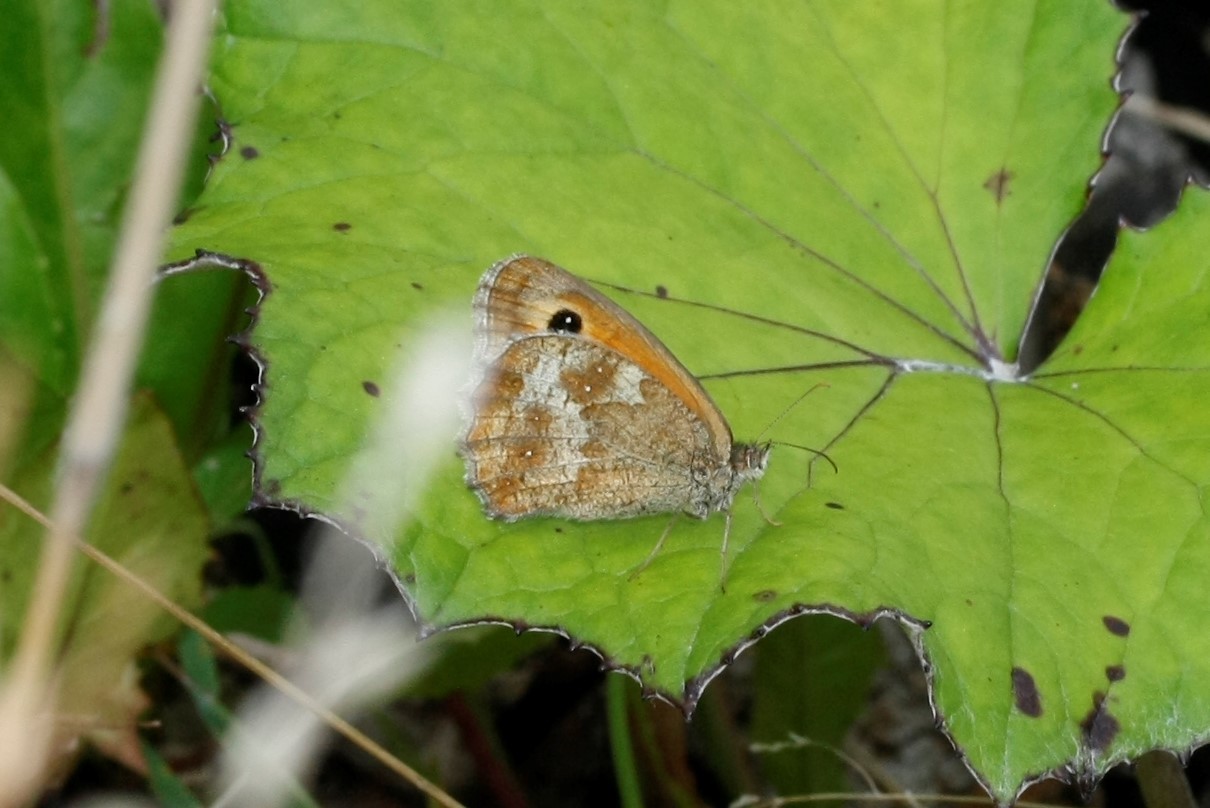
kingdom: Animalia
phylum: Arthropoda
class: Insecta
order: Lepidoptera
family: Nymphalidae
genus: Pyronia
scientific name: Pyronia tithonus
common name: Gatekeeper
